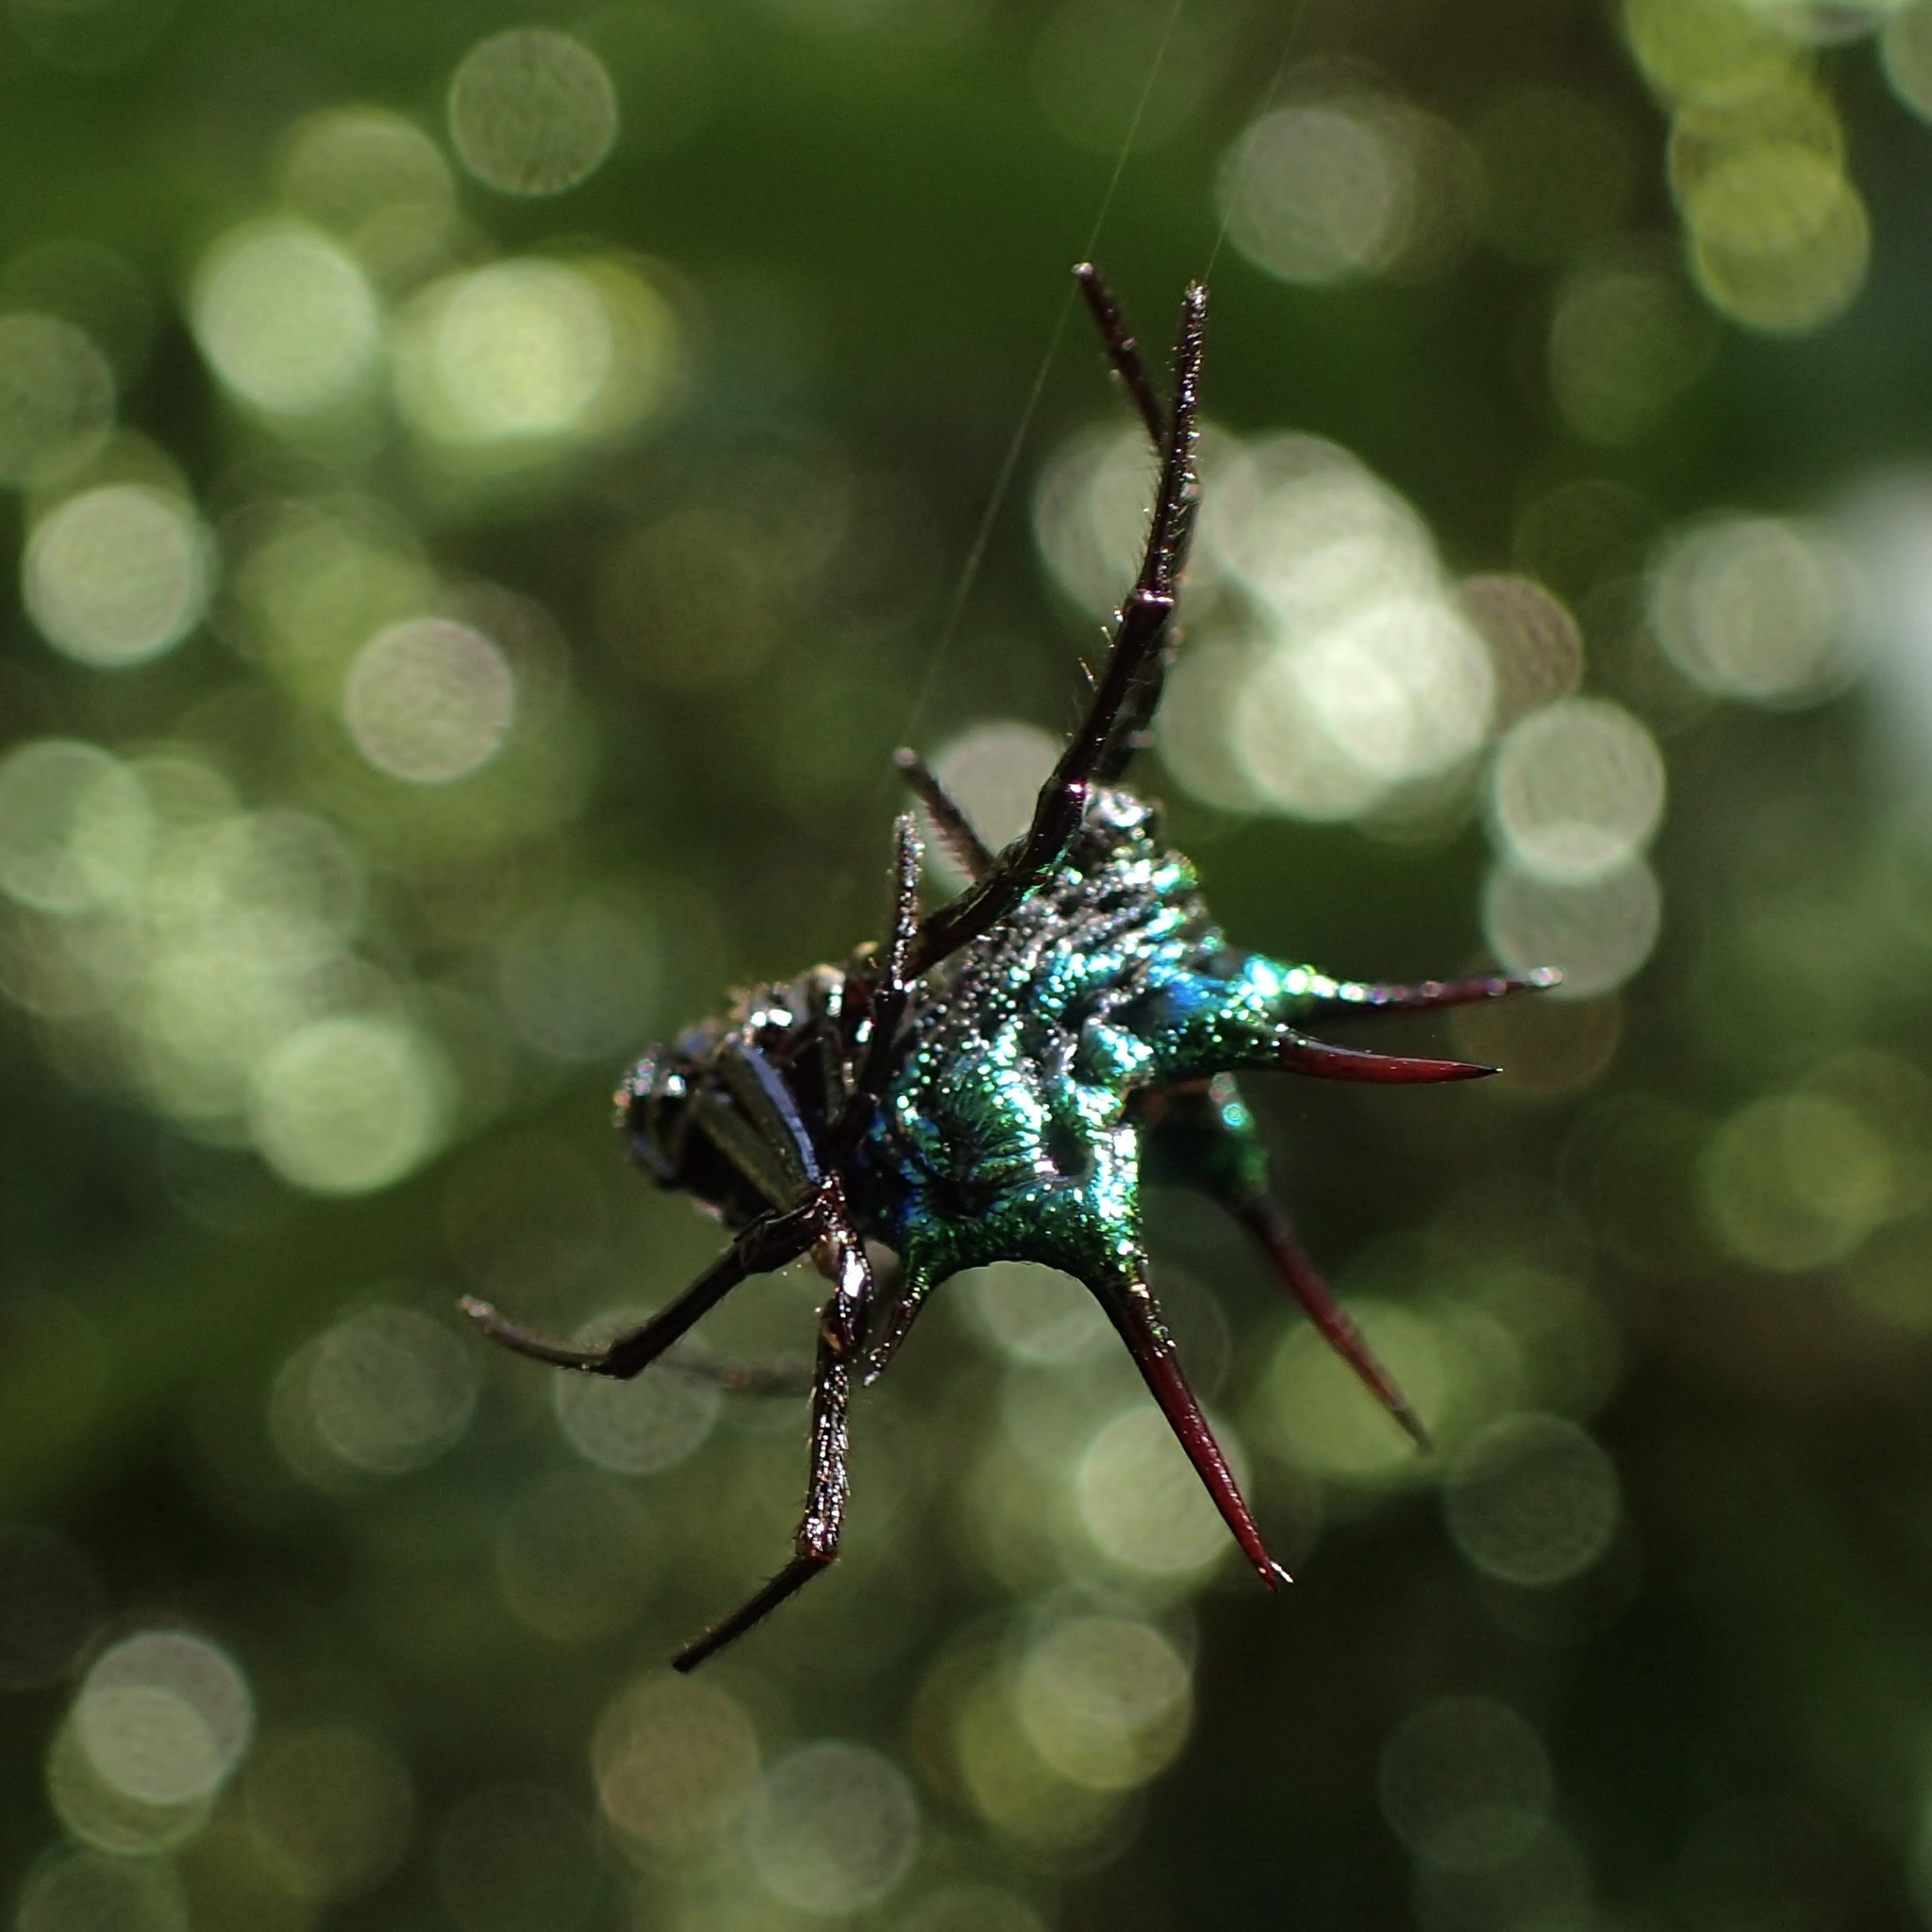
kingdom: Animalia
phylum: Arthropoda
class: Arachnida
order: Araneae
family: Araneidae
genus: Gasteracantha
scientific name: Gasteracantha scintillans
